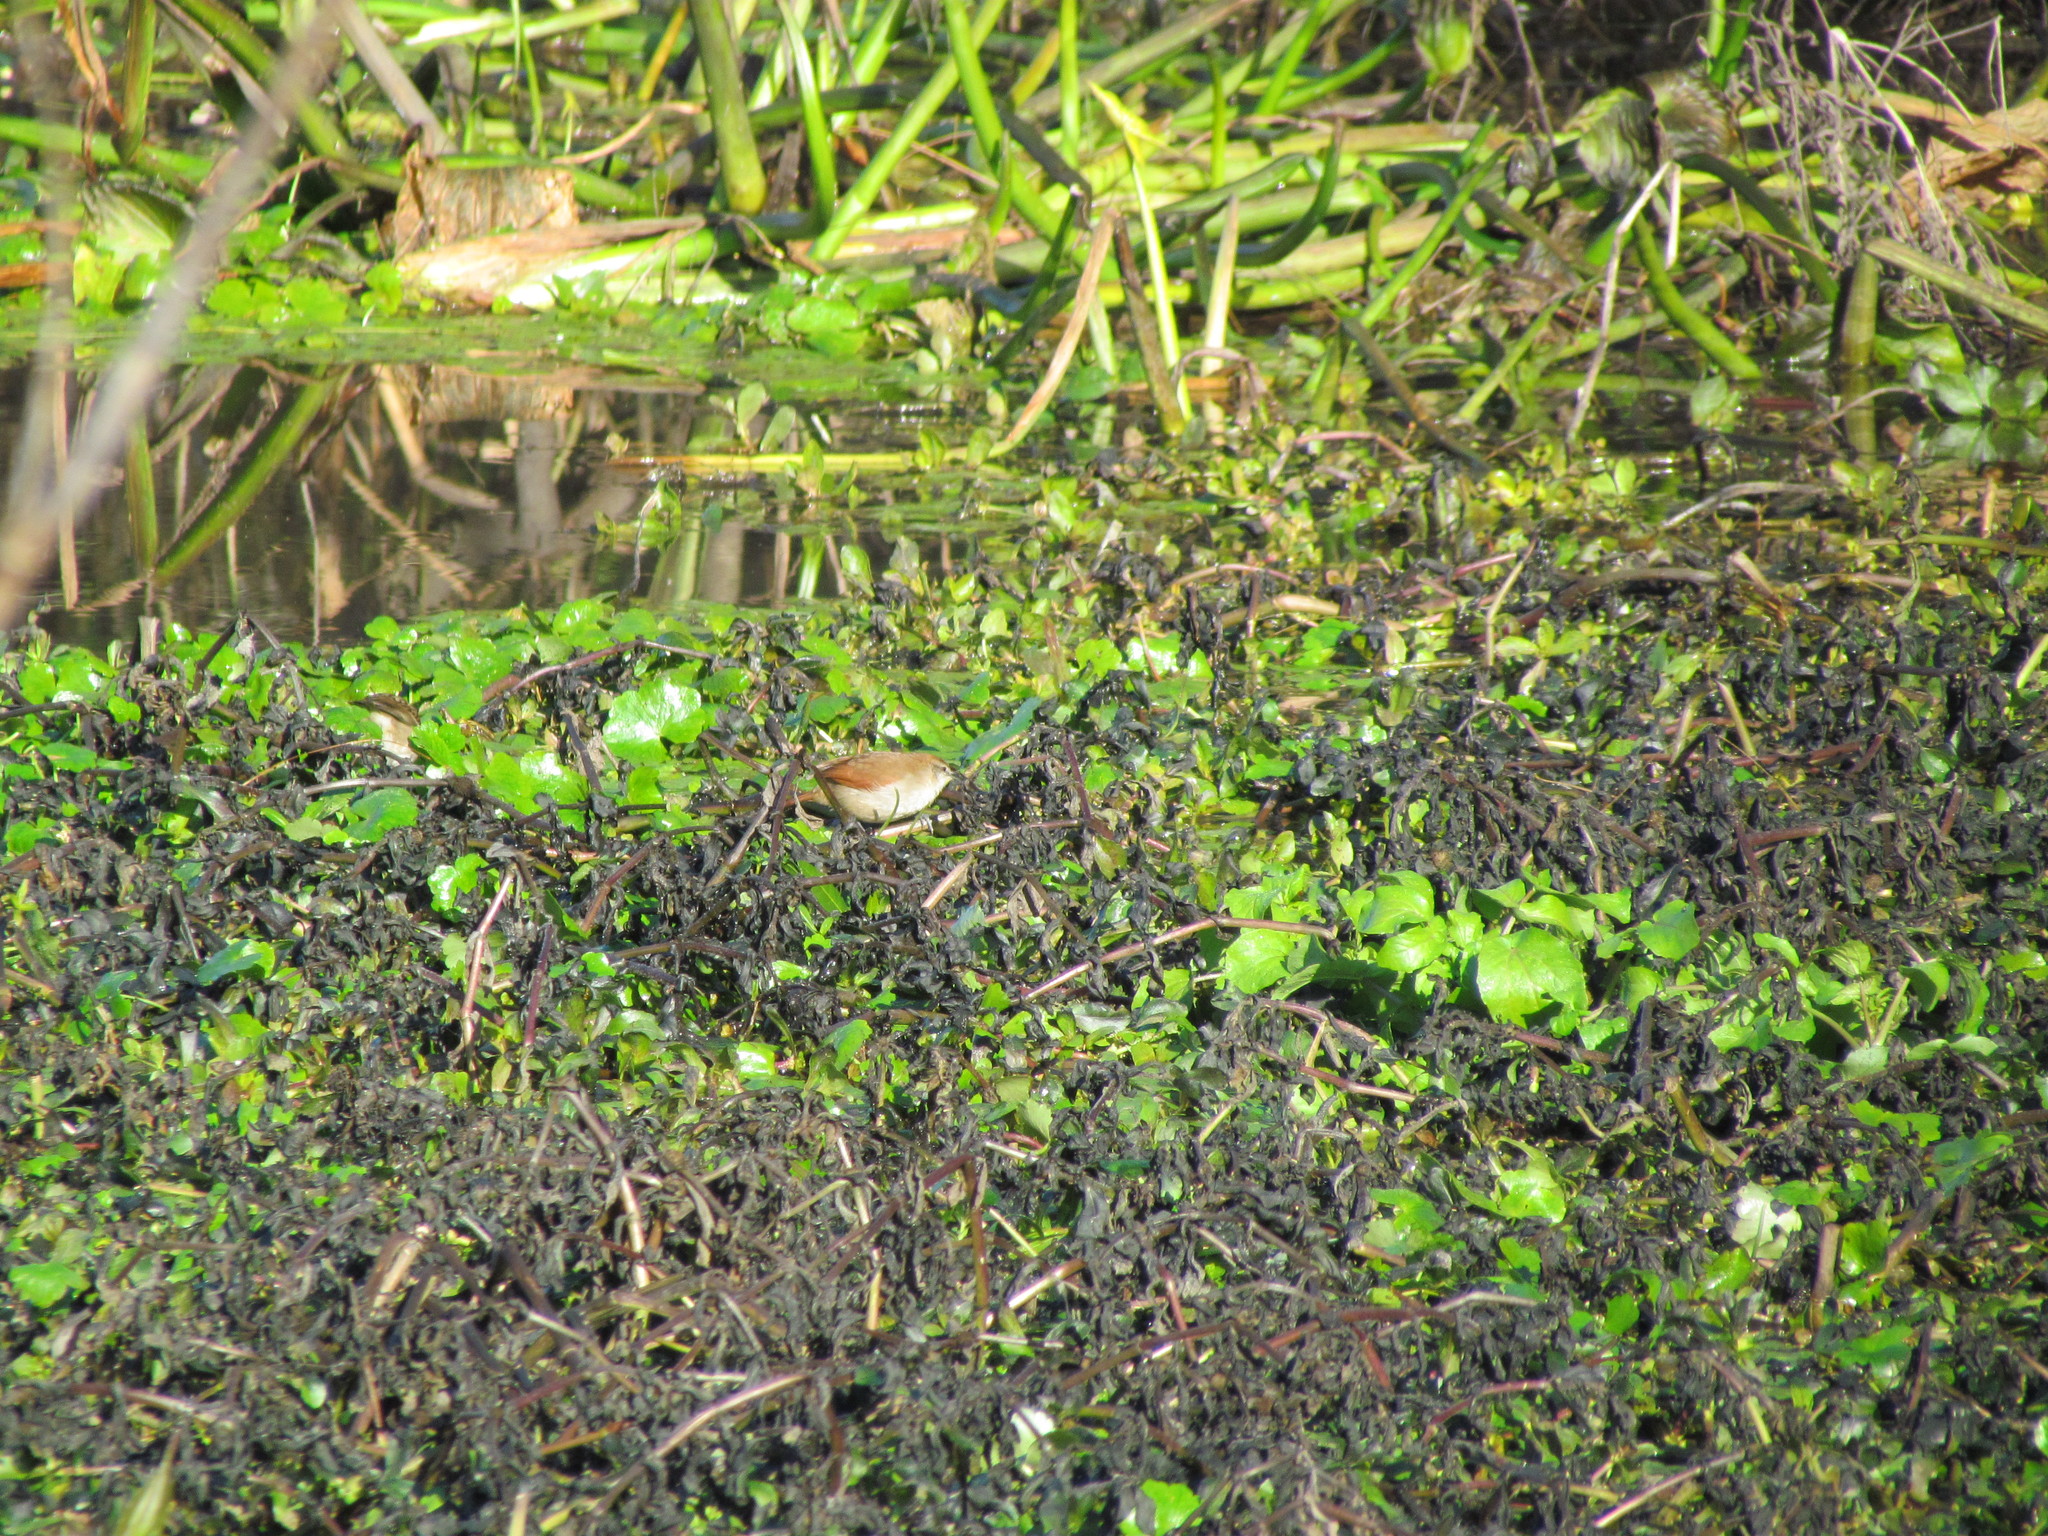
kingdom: Animalia
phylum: Chordata
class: Aves
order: Passeriformes
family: Furnariidae
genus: Certhiaxis
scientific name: Certhiaxis cinnamomeus
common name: Yellow-chinned spinetail
